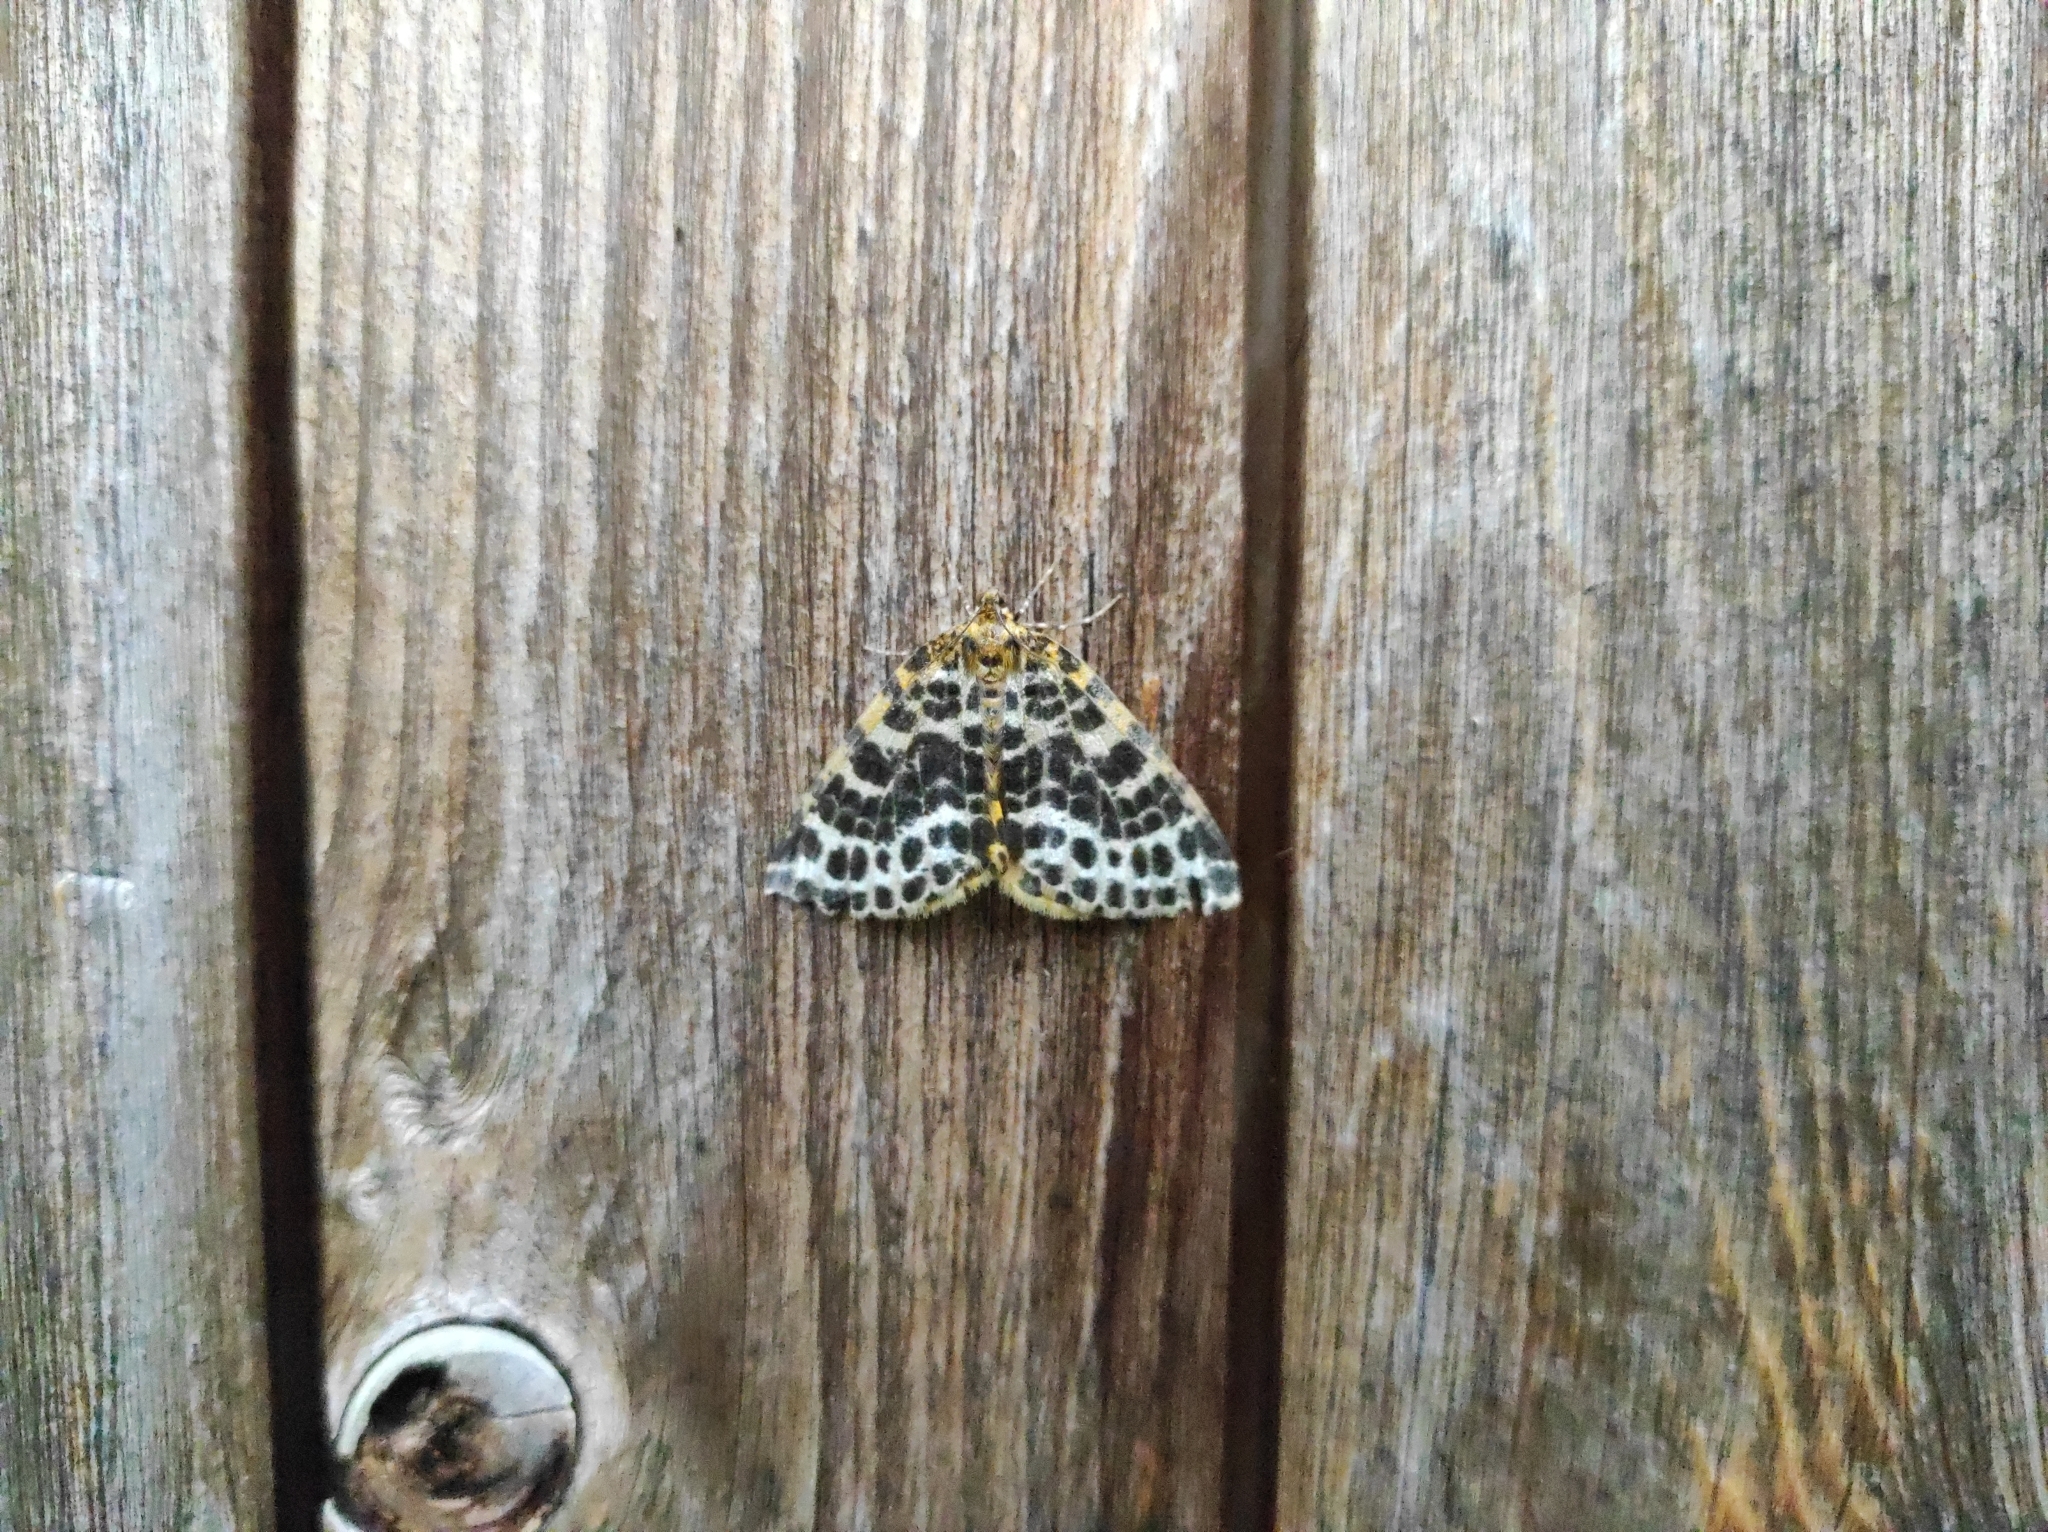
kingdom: Animalia
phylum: Arthropoda
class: Insecta
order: Lepidoptera
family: Geometridae
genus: Arichanna
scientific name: Arichanna melanaria
